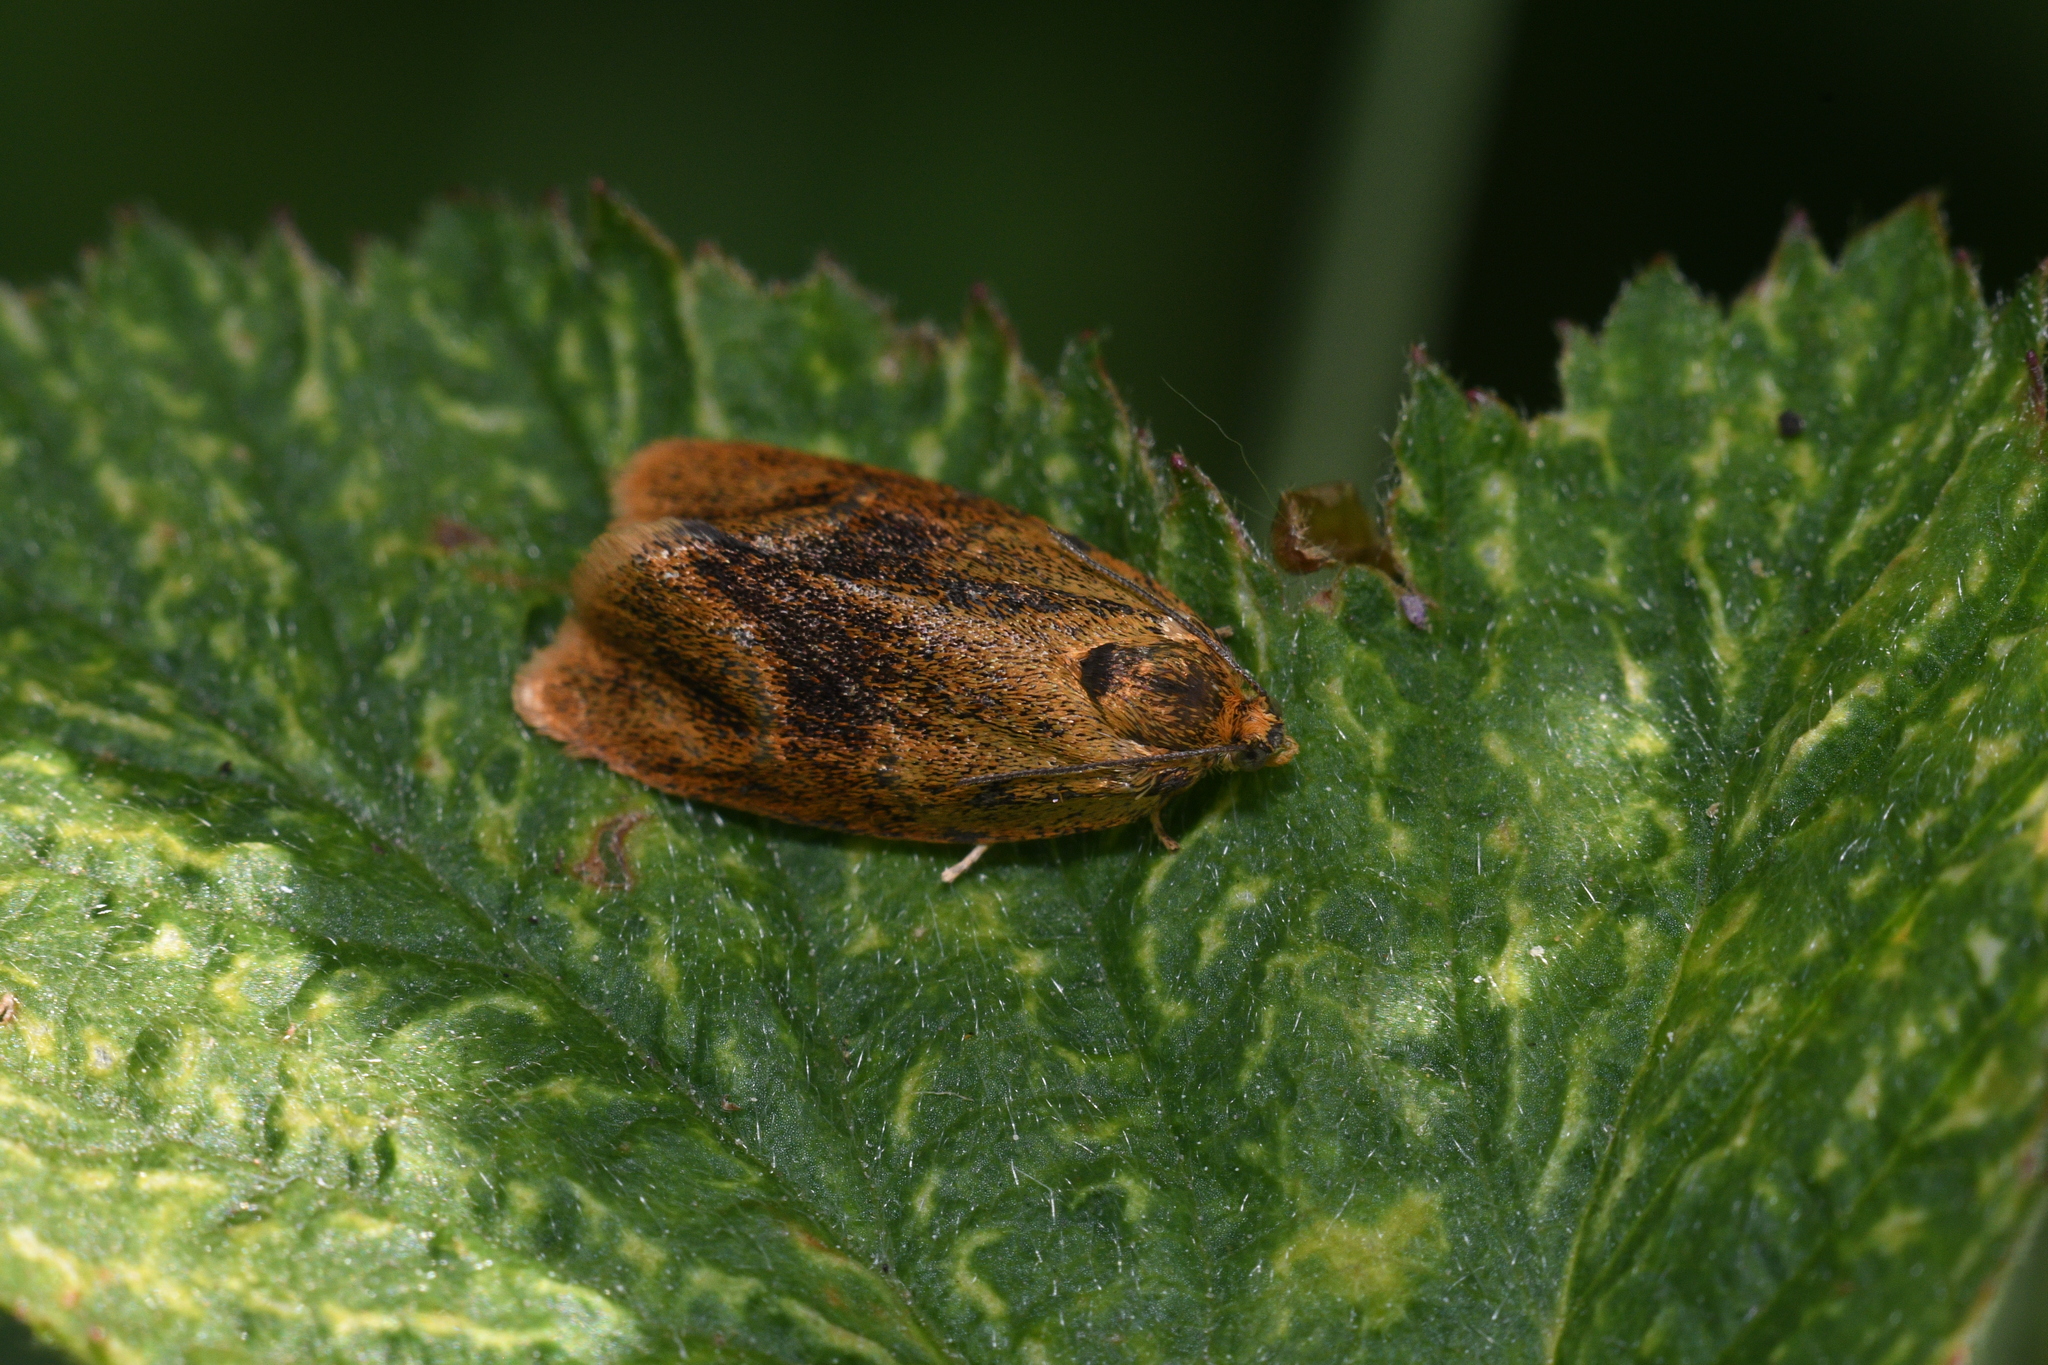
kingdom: Animalia
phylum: Arthropoda
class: Insecta
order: Lepidoptera
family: Tortricidae
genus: Ptycholoma
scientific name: Ptycholoma lecheana
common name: Leches twist moth
